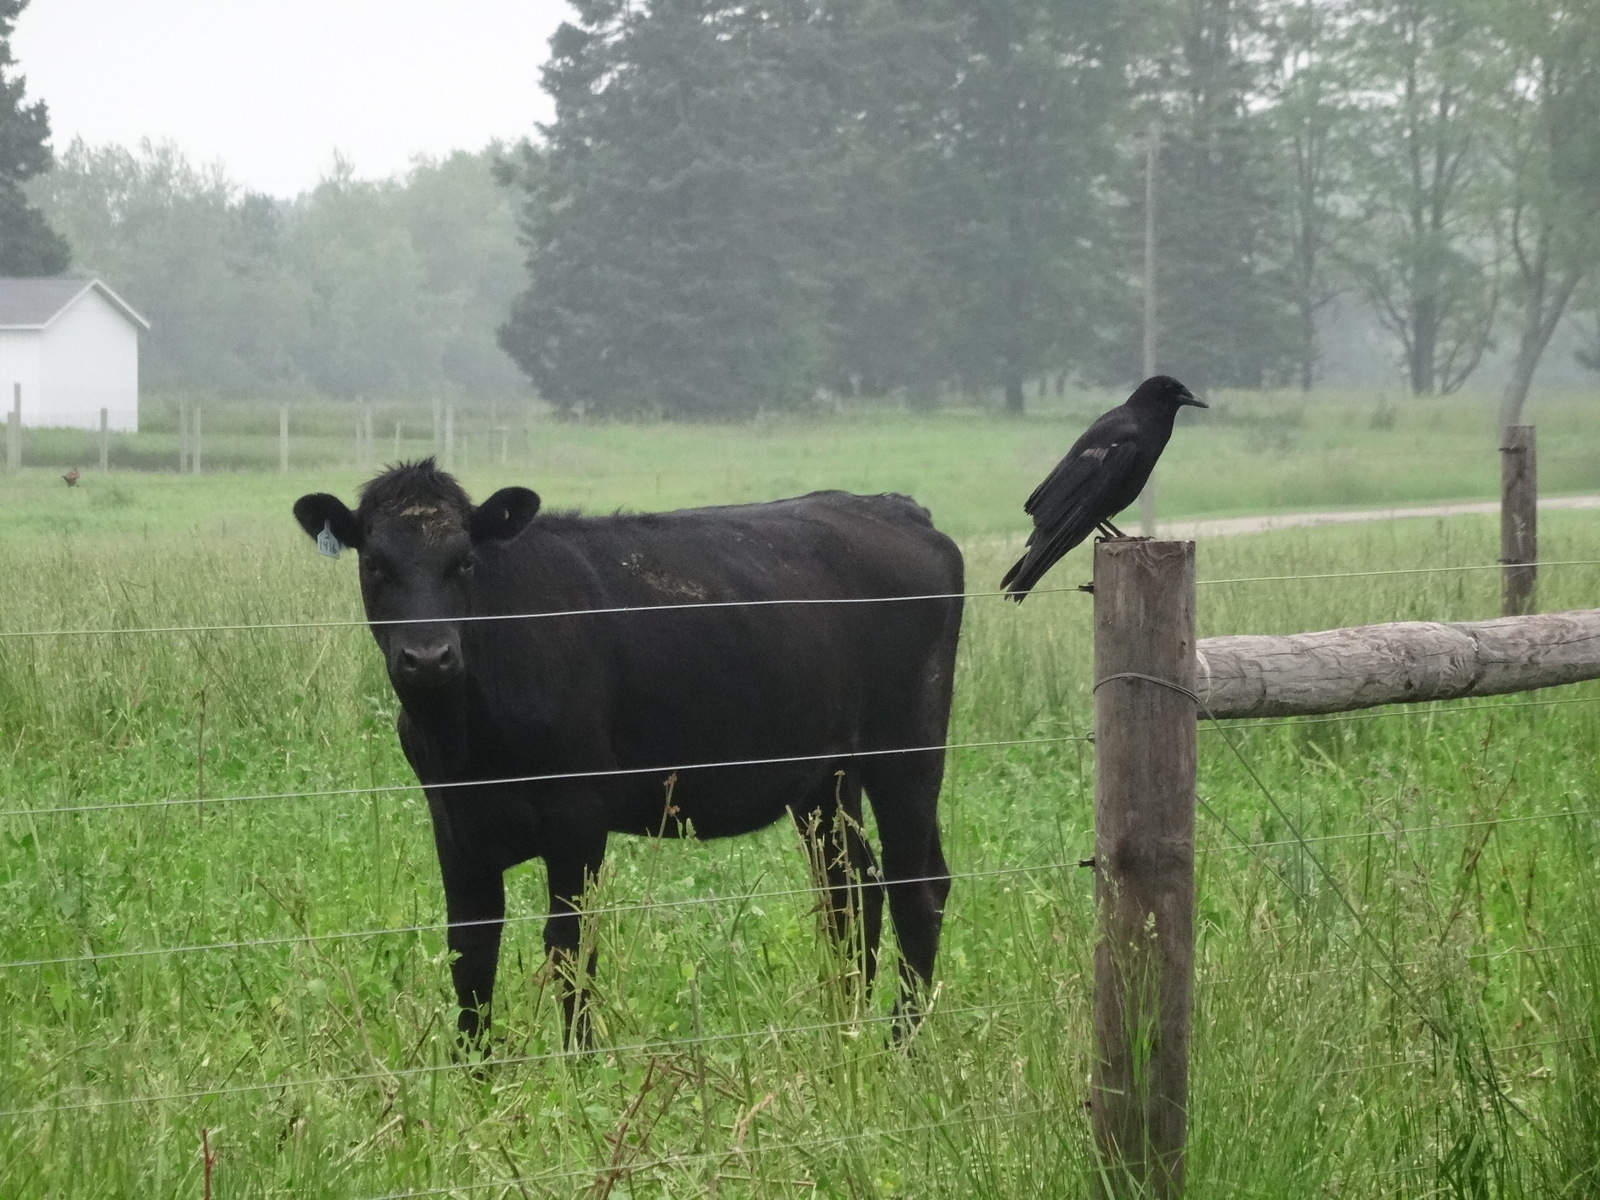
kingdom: Animalia
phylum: Chordata
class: Aves
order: Passeriformes
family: Corvidae
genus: Corvus
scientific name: Corvus brachyrhynchos
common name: American crow
